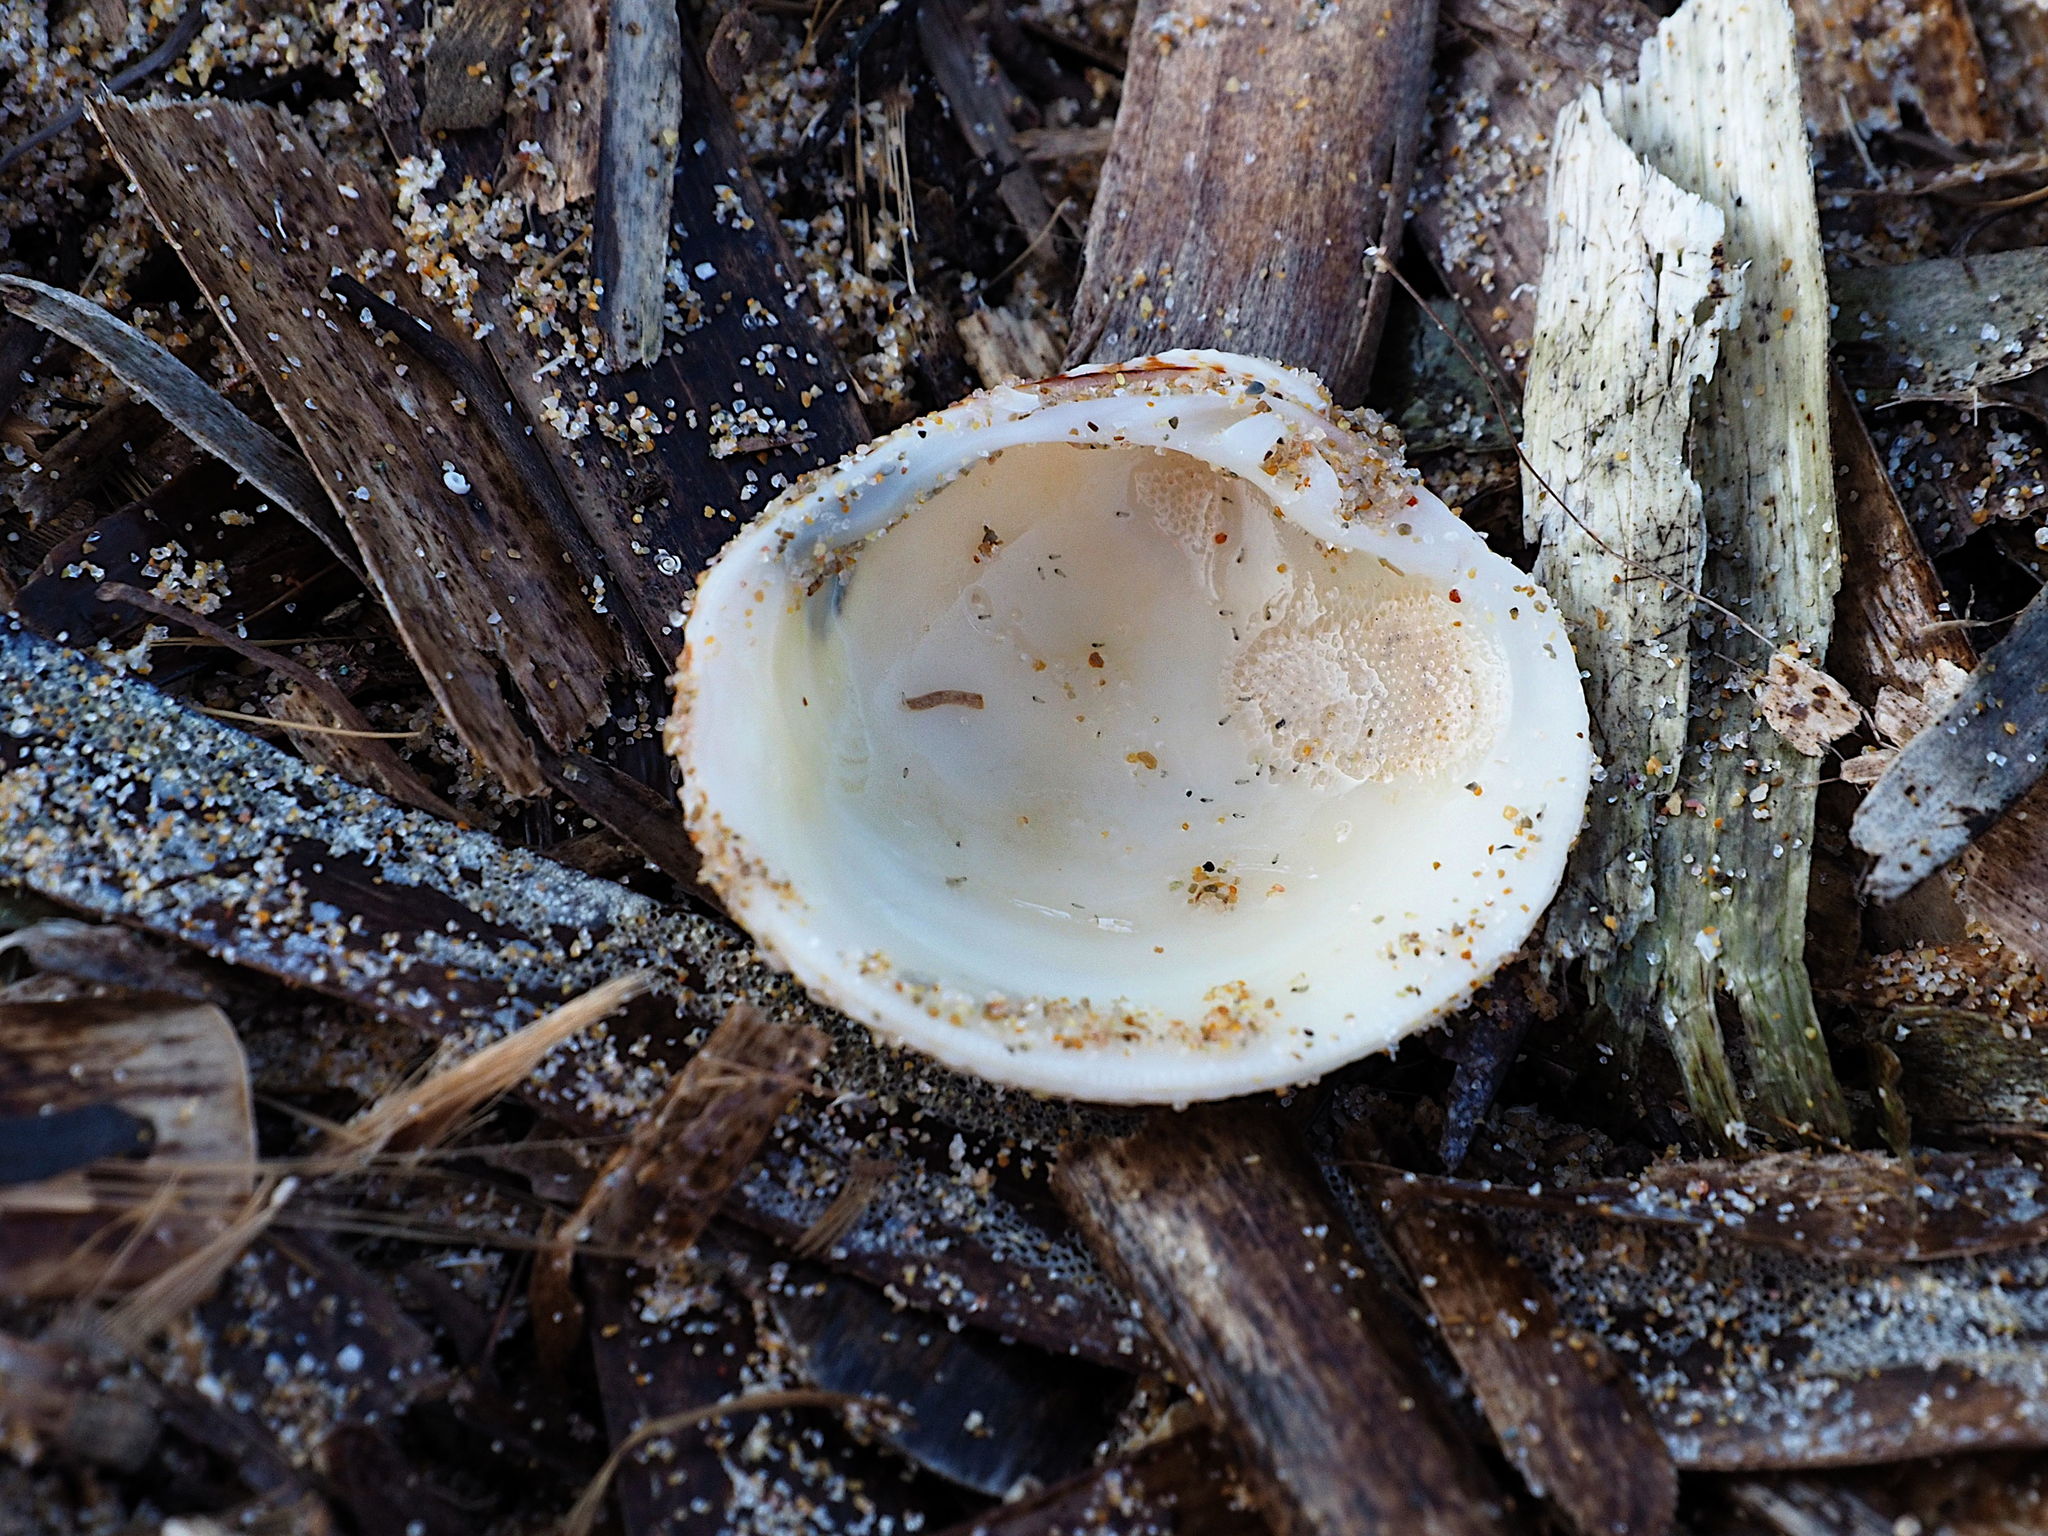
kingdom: Animalia
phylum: Mollusca
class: Bivalvia
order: Venerida
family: Veneridae
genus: Venus
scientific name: Venus verrucosa
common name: Warty venus
